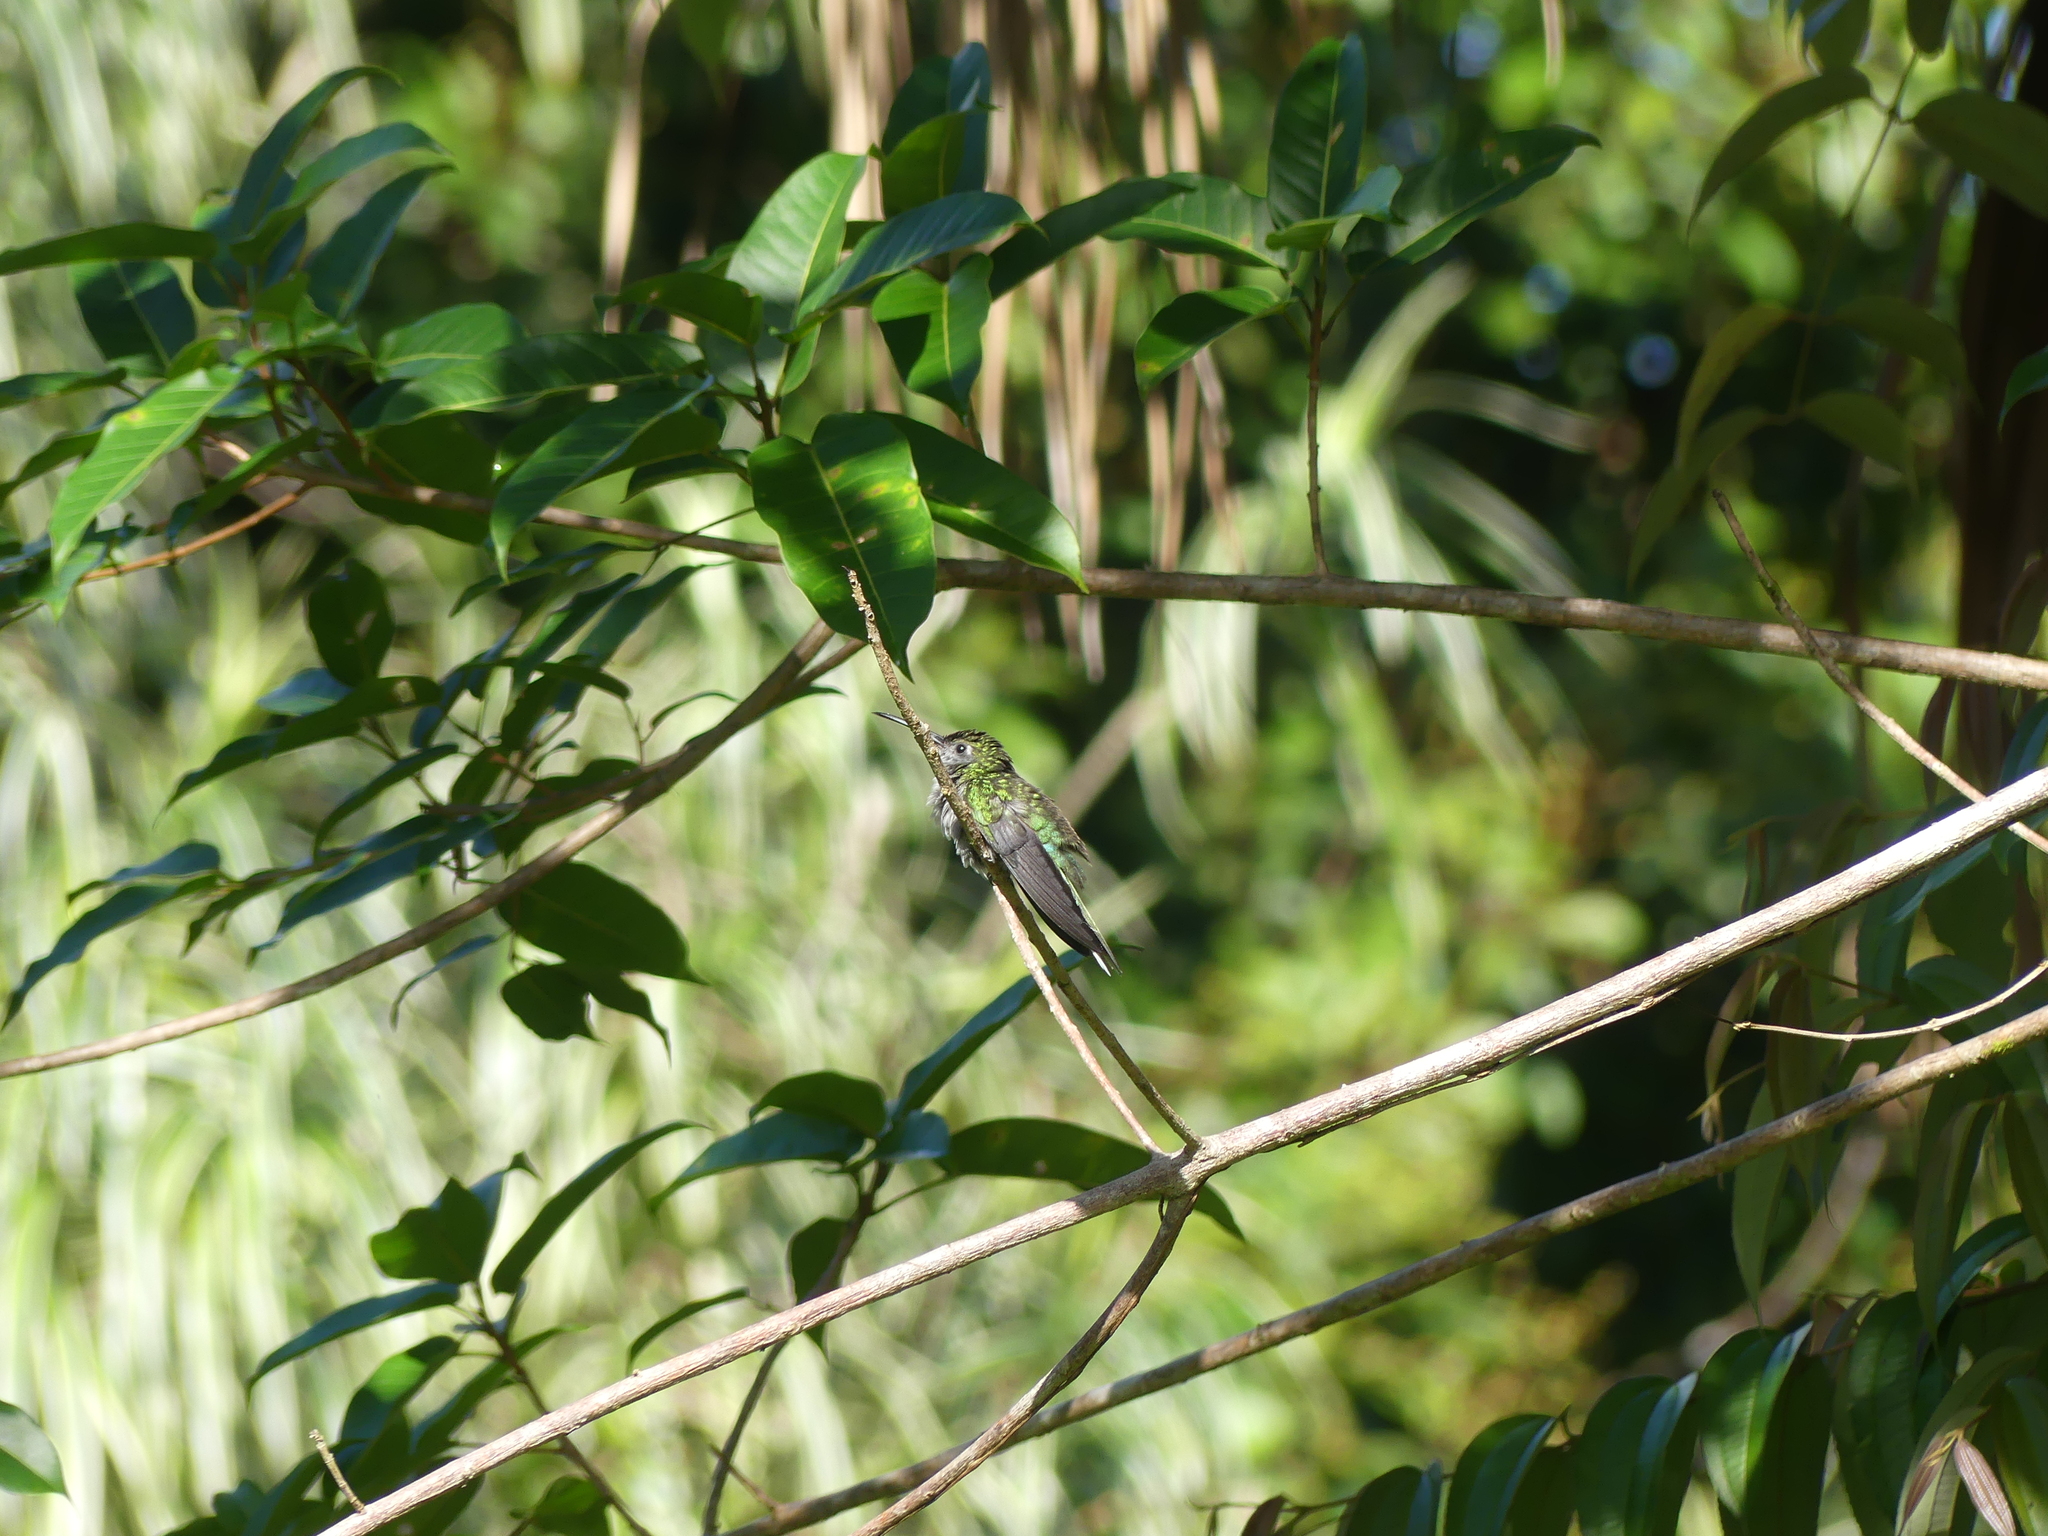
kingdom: Animalia
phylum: Chordata
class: Aves
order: Apodiformes
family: Trochilidae
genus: Campylopterus
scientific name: Campylopterus largipennis
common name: Gray-breasted sabrewing
